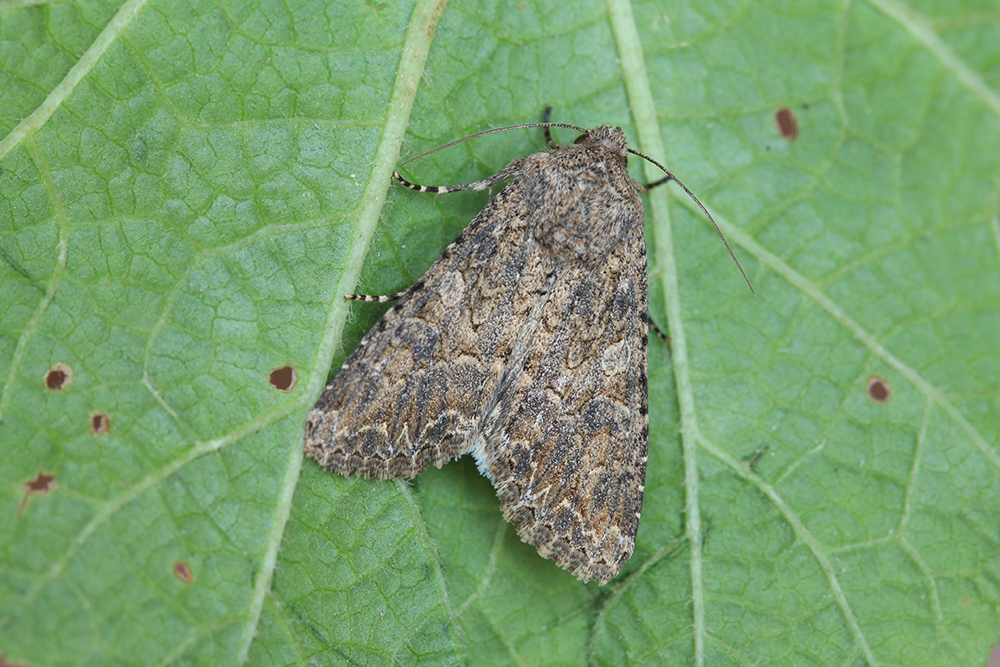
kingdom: Animalia
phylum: Arthropoda
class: Insecta
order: Lepidoptera
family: Noctuidae
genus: Anarta
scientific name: Anarta trifolii
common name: Clover cutworm moth
